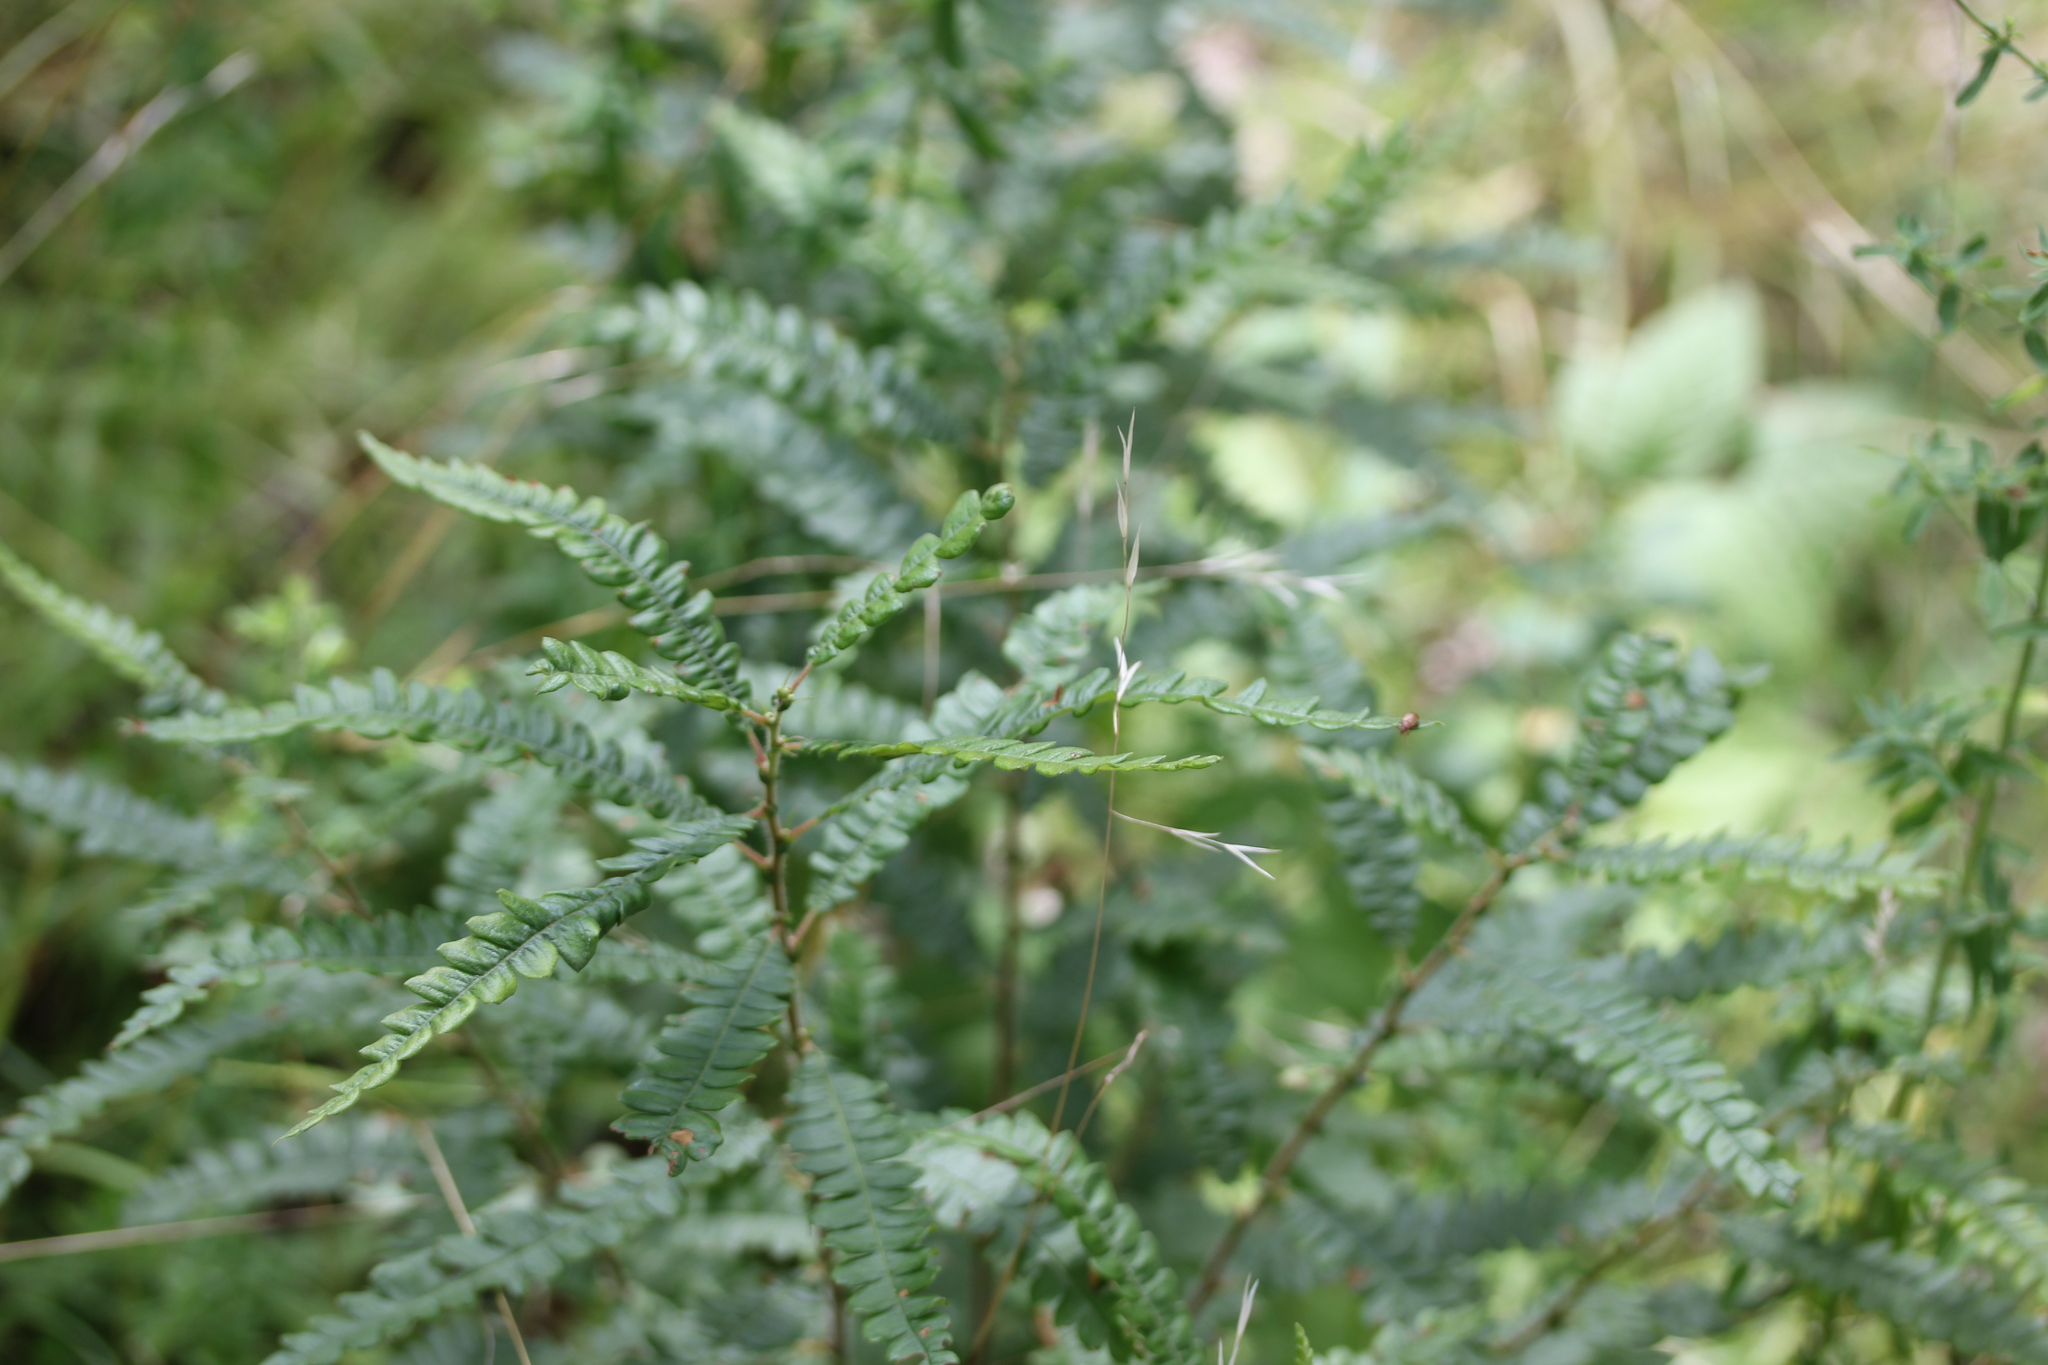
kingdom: Plantae
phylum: Tracheophyta
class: Magnoliopsida
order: Fagales
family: Myricaceae
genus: Comptonia
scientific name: Comptonia peregrina
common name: Sweet-fern
